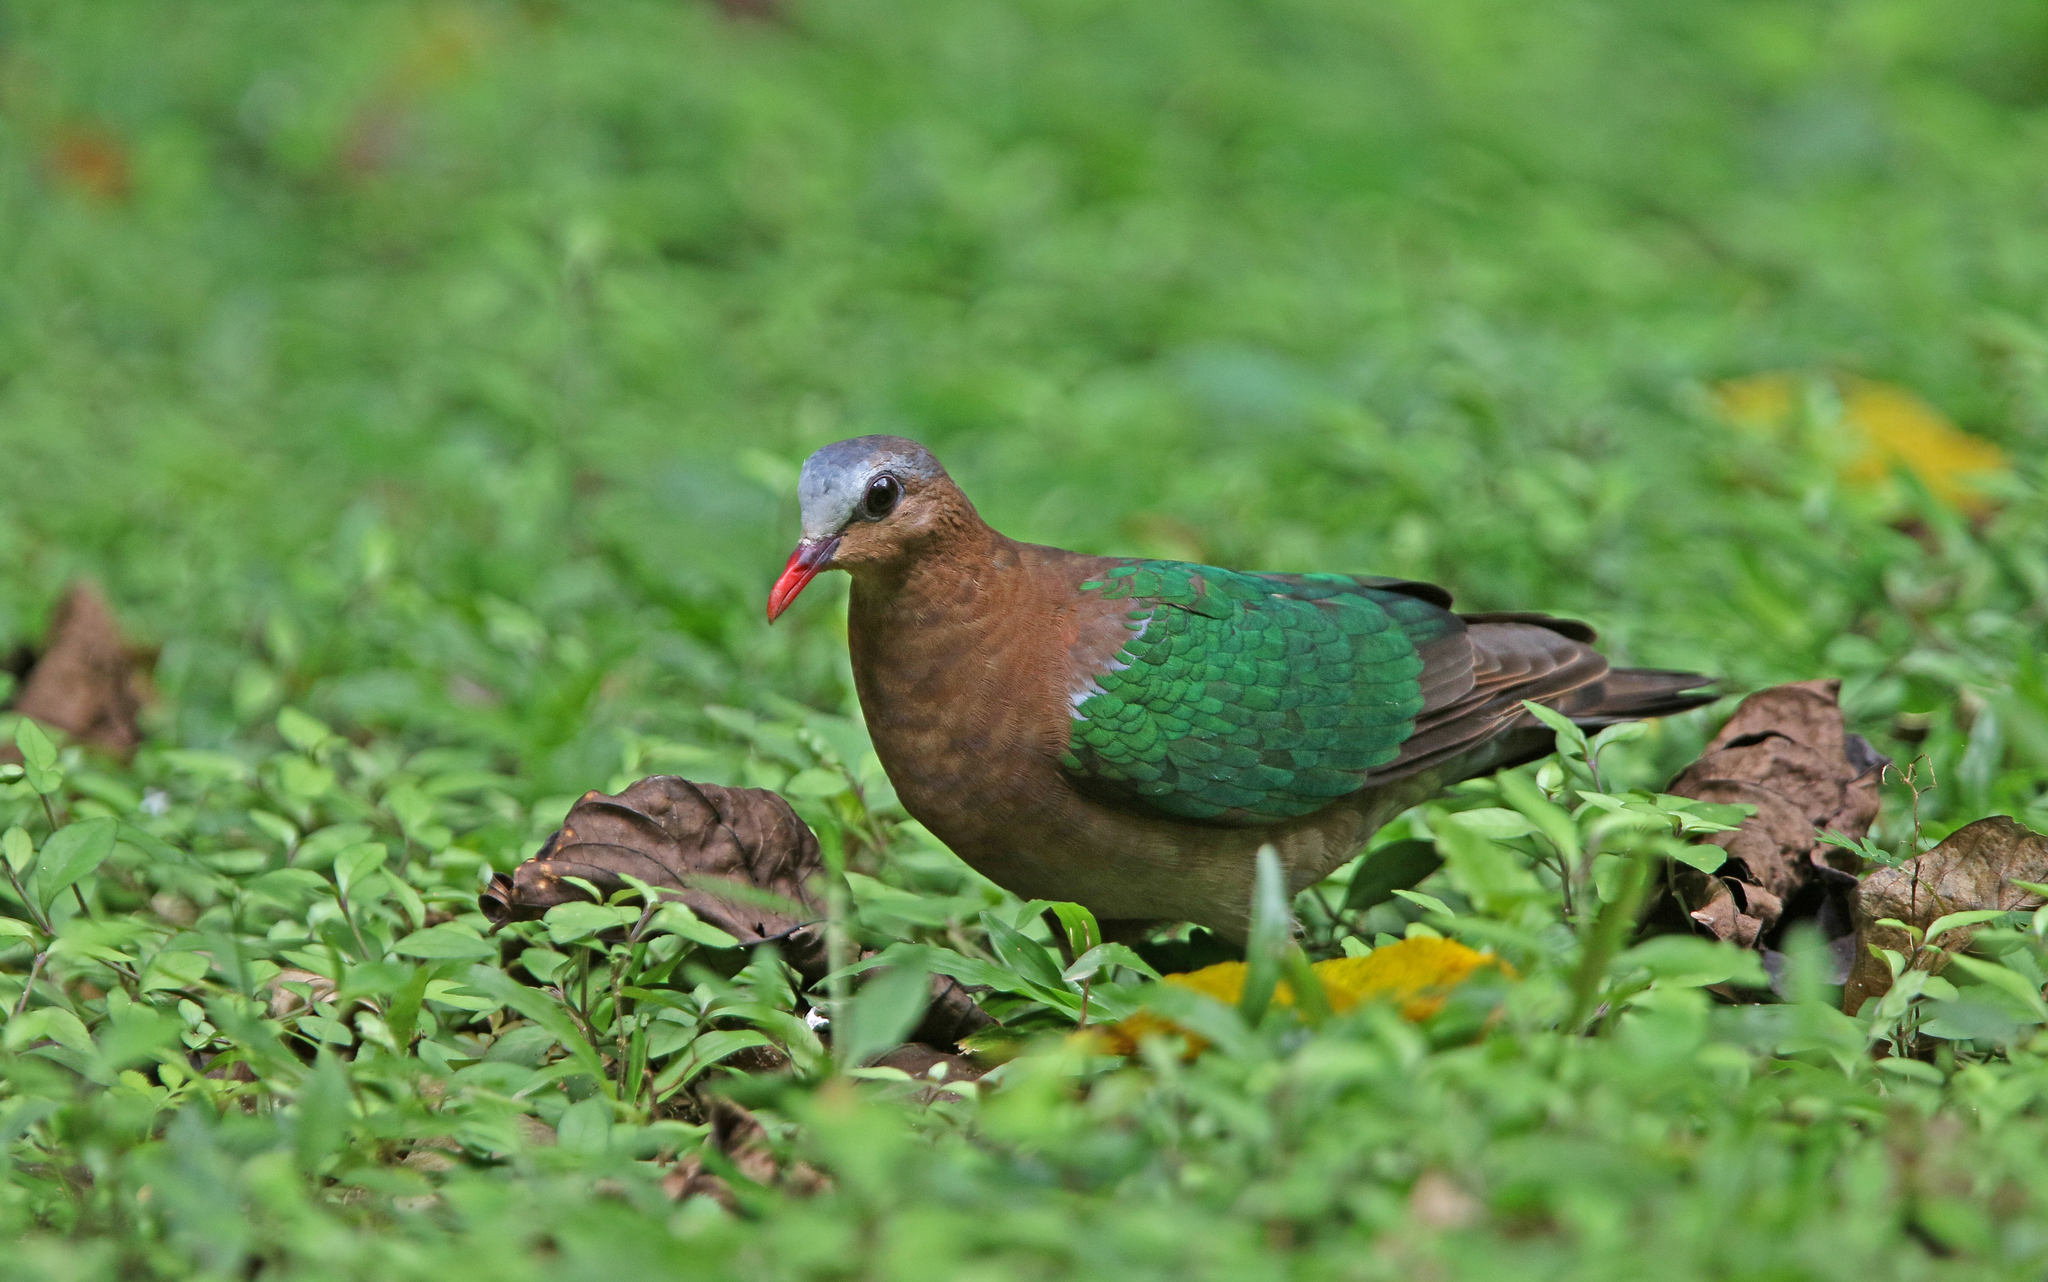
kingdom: Animalia
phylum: Chordata
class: Aves
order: Columbiformes
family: Columbidae
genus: Chalcophaps
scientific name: Chalcophaps indica
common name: Common emerald dove
